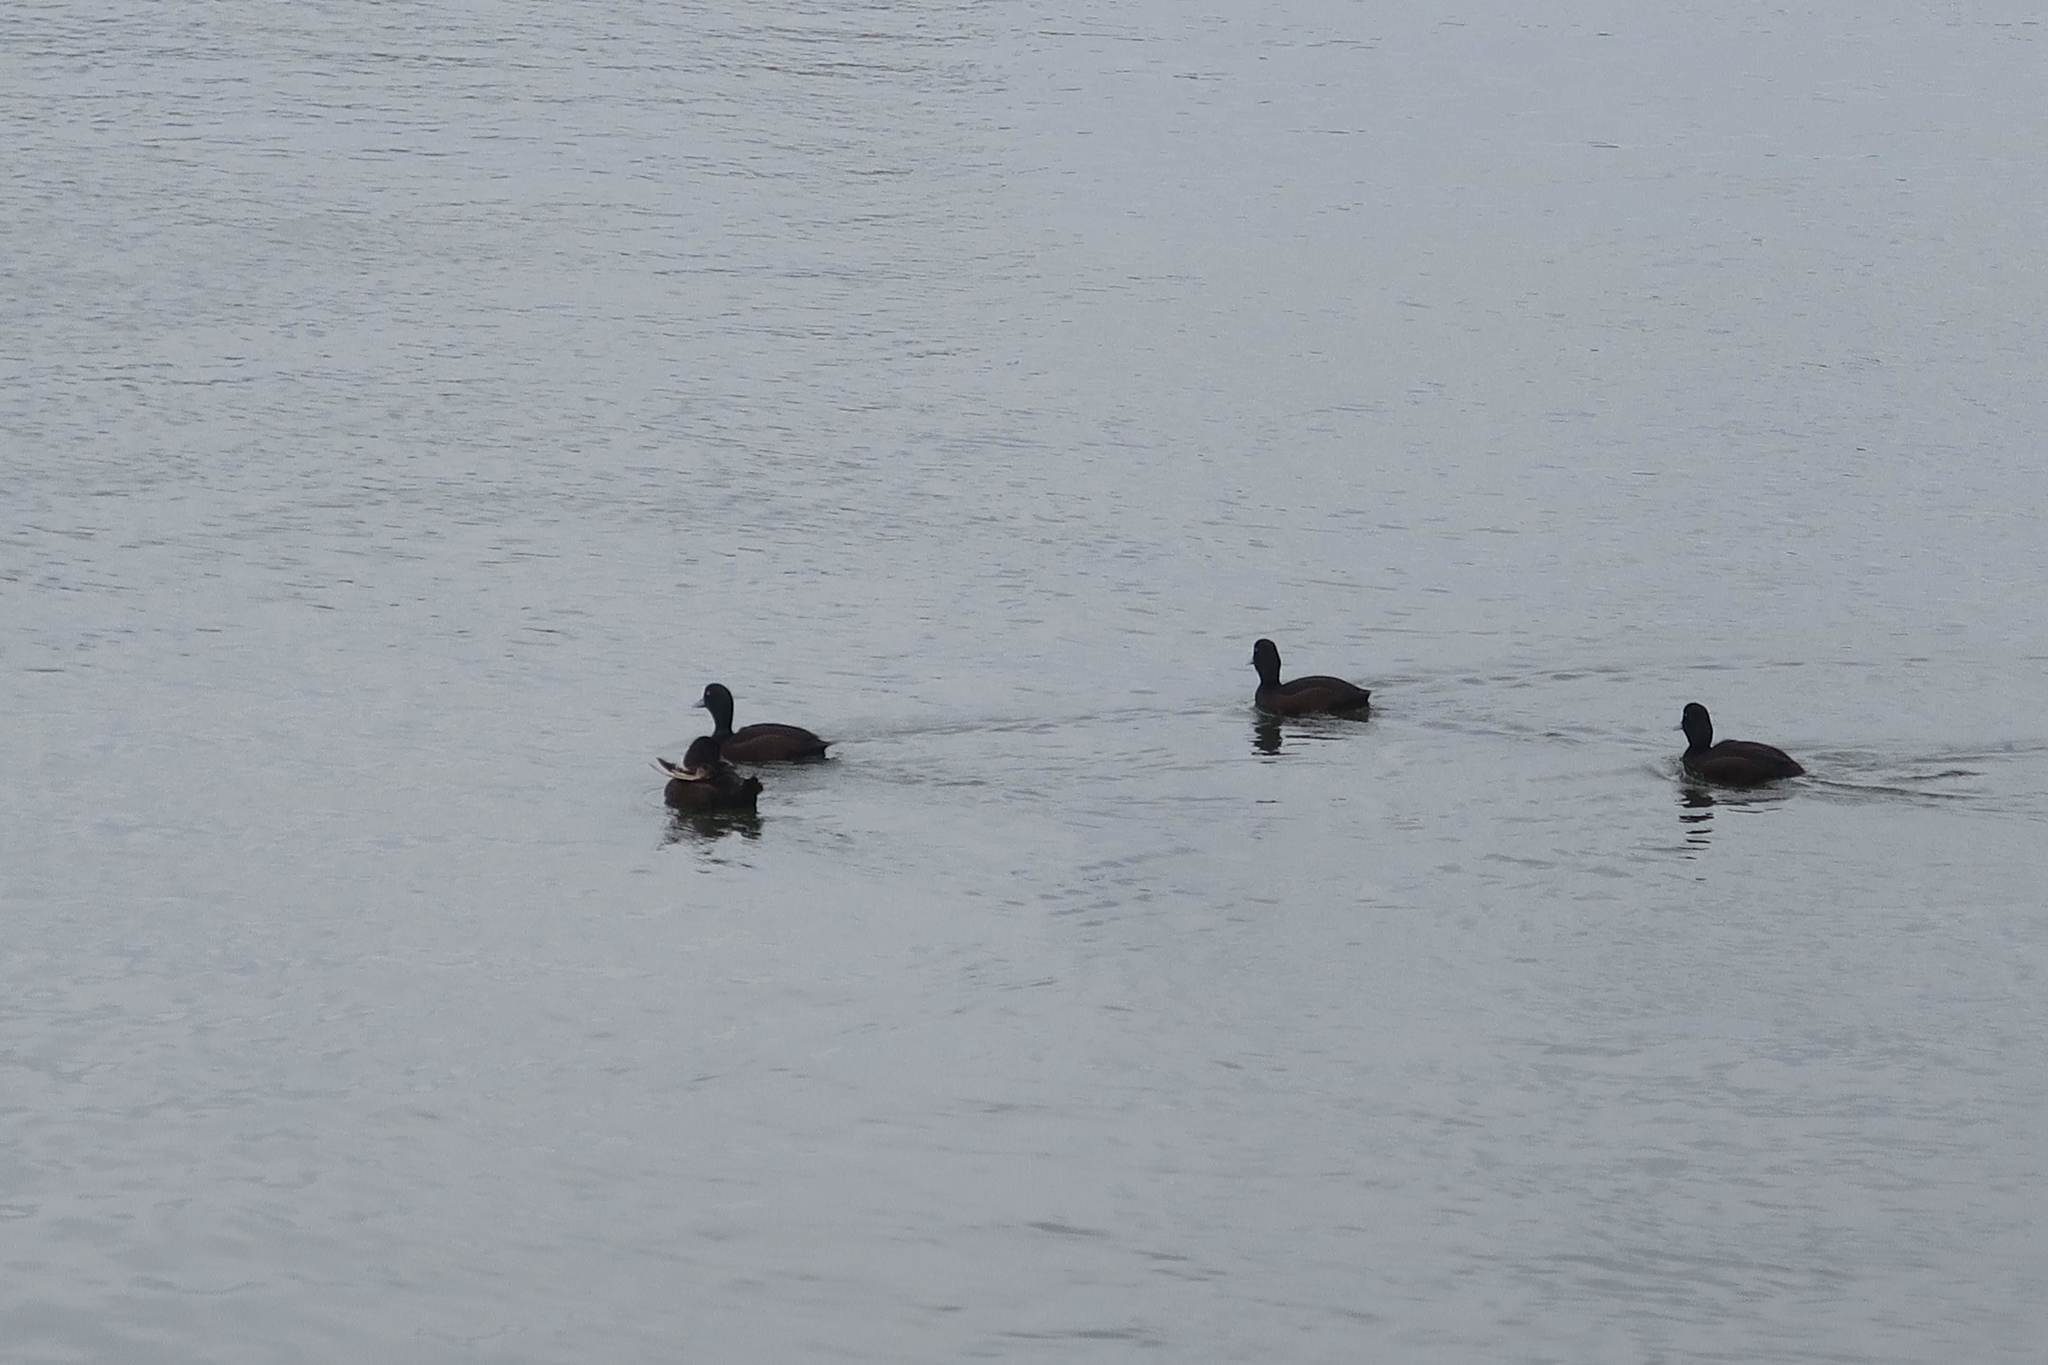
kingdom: Animalia
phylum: Chordata
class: Aves
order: Anseriformes
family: Anatidae
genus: Aythya
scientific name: Aythya novaeseelandiae
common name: New zealand scaup
